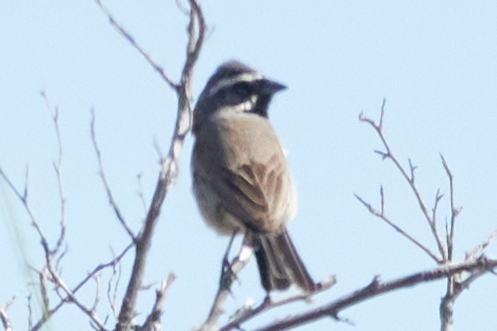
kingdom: Animalia
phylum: Chordata
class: Aves
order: Passeriformes
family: Passerellidae
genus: Amphispiza
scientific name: Amphispiza bilineata
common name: Black-throated sparrow
